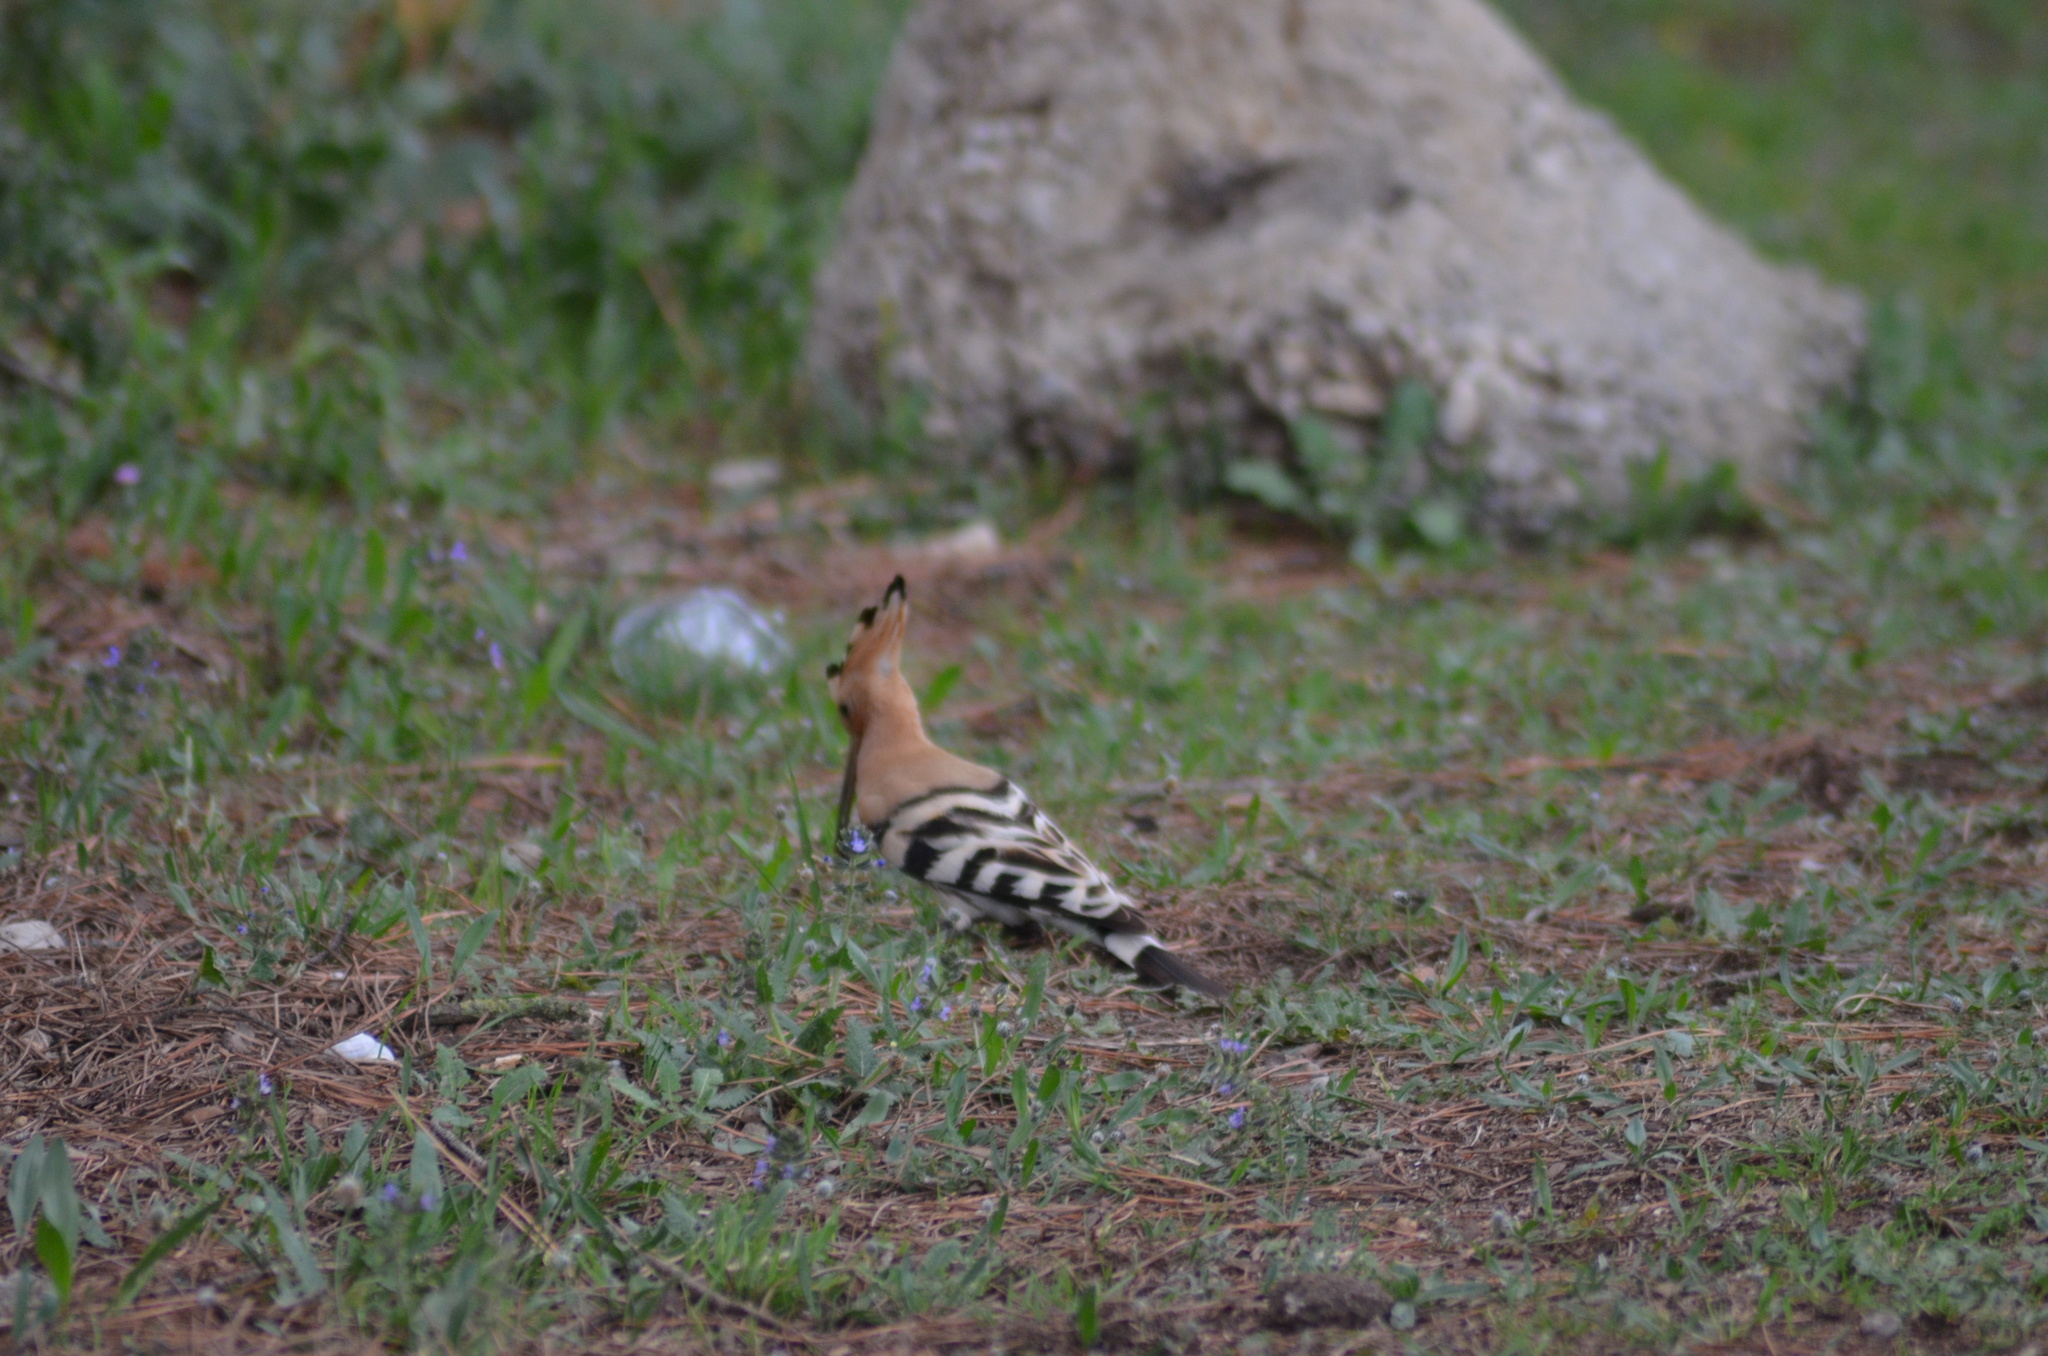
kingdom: Animalia
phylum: Chordata
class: Aves
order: Bucerotiformes
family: Upupidae
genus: Upupa
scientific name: Upupa epops
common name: Eurasian hoopoe
